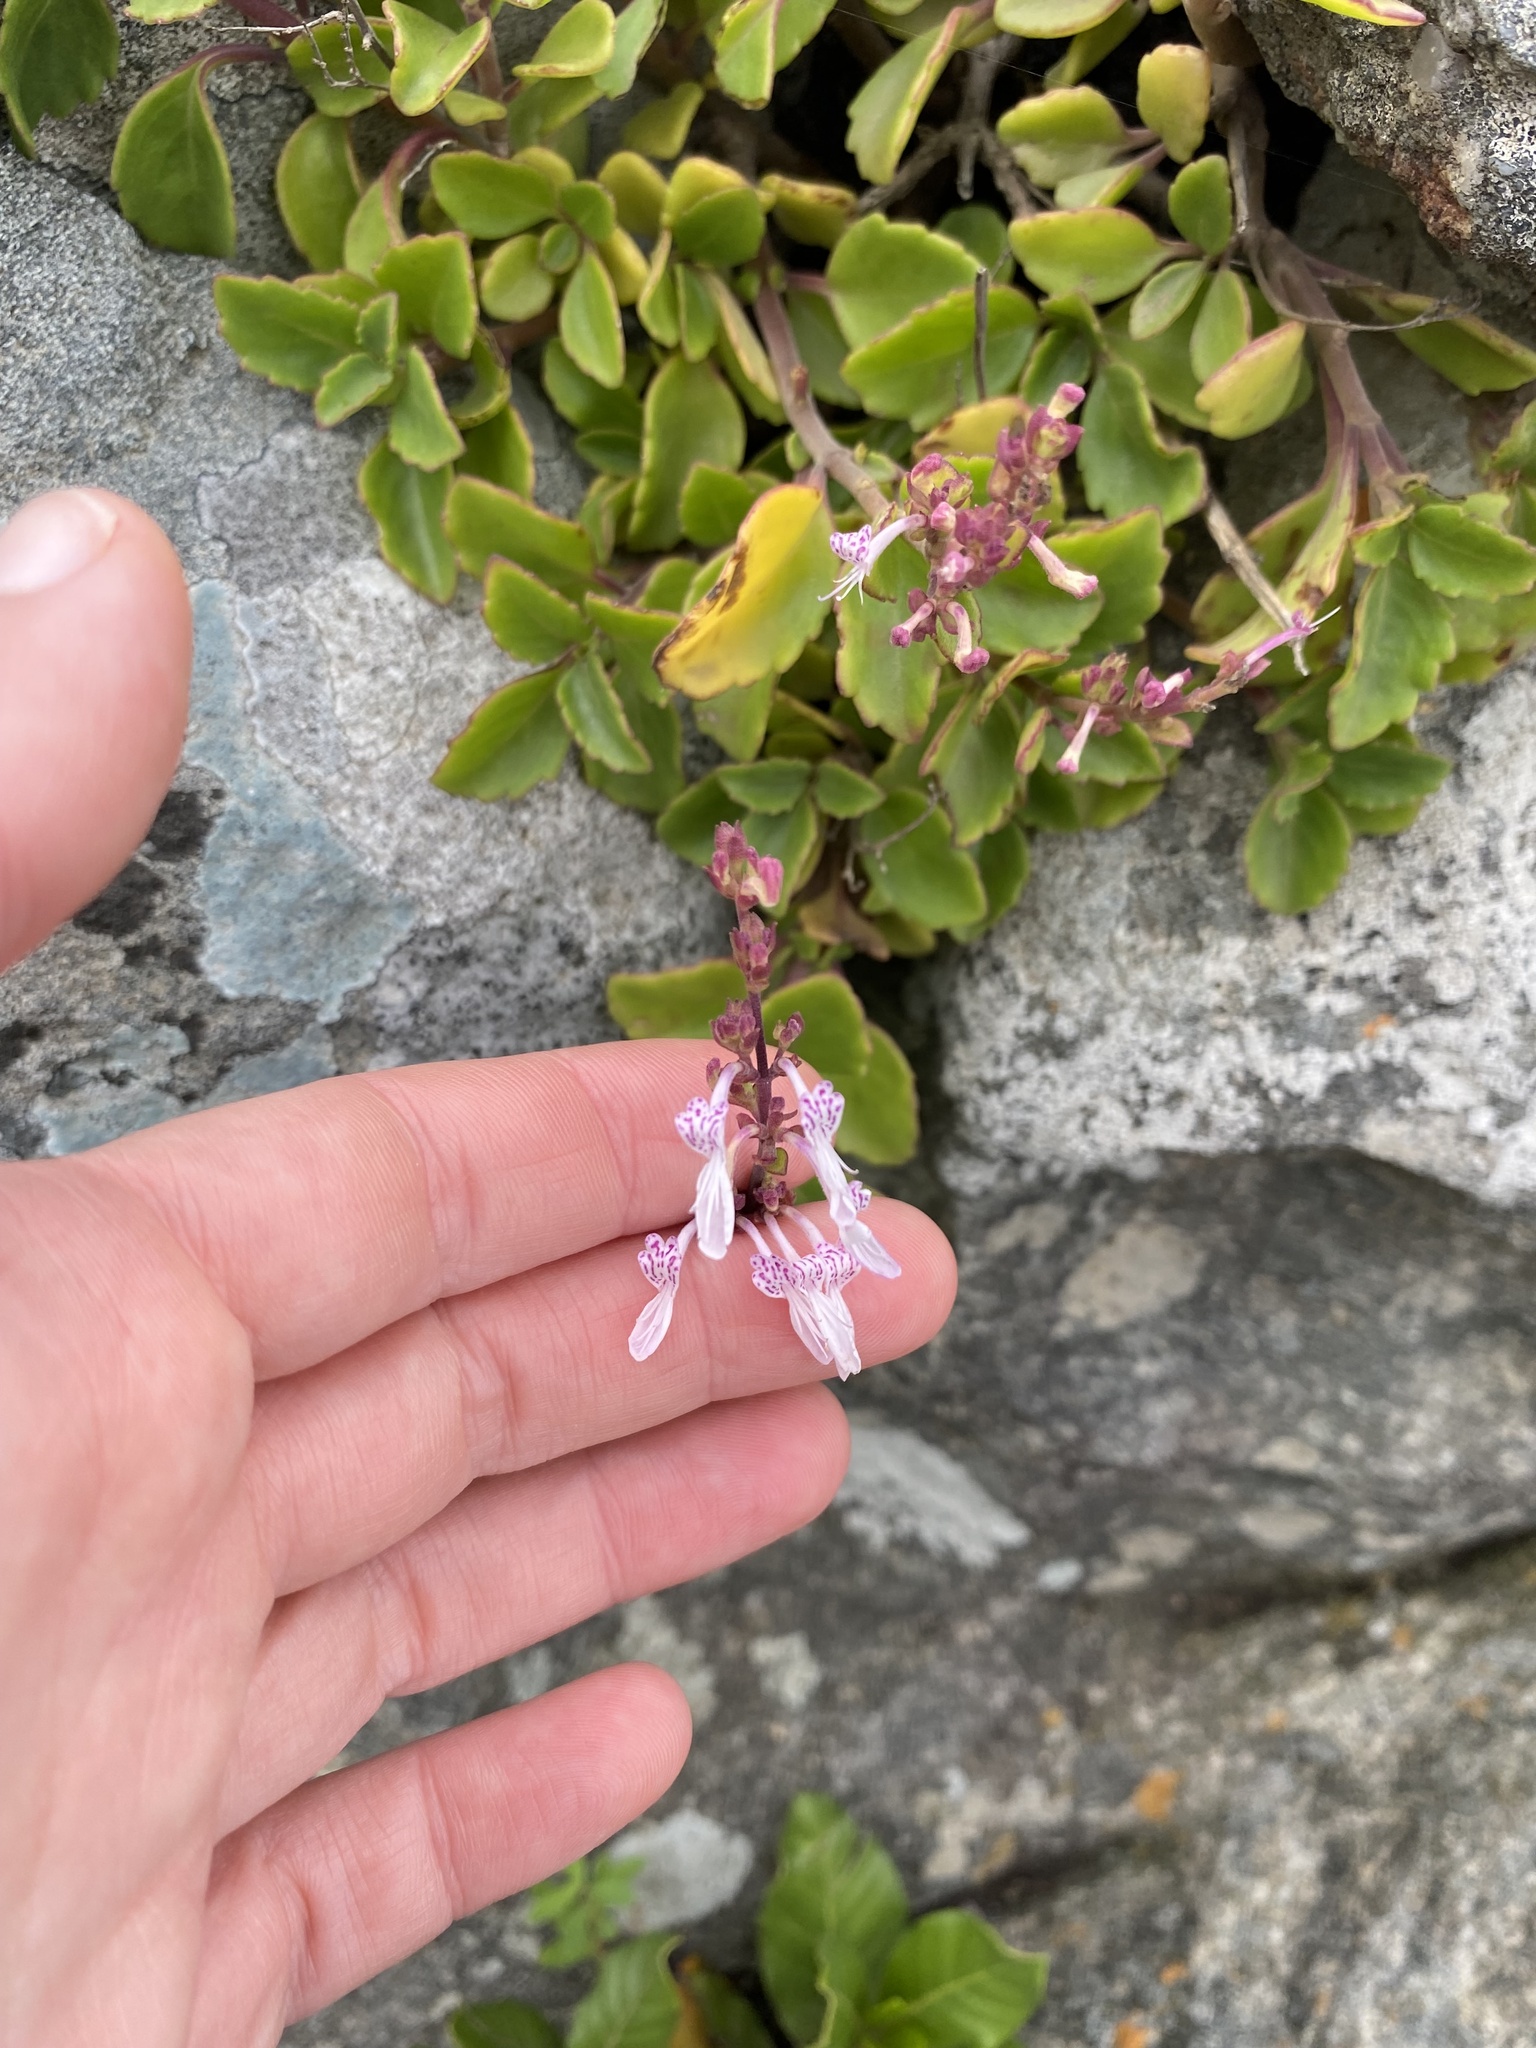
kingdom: Plantae
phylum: Tracheophyta
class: Magnoliopsida
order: Lamiales
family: Lamiaceae
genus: Aeollanthus
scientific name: Aeollanthus parvifolius
